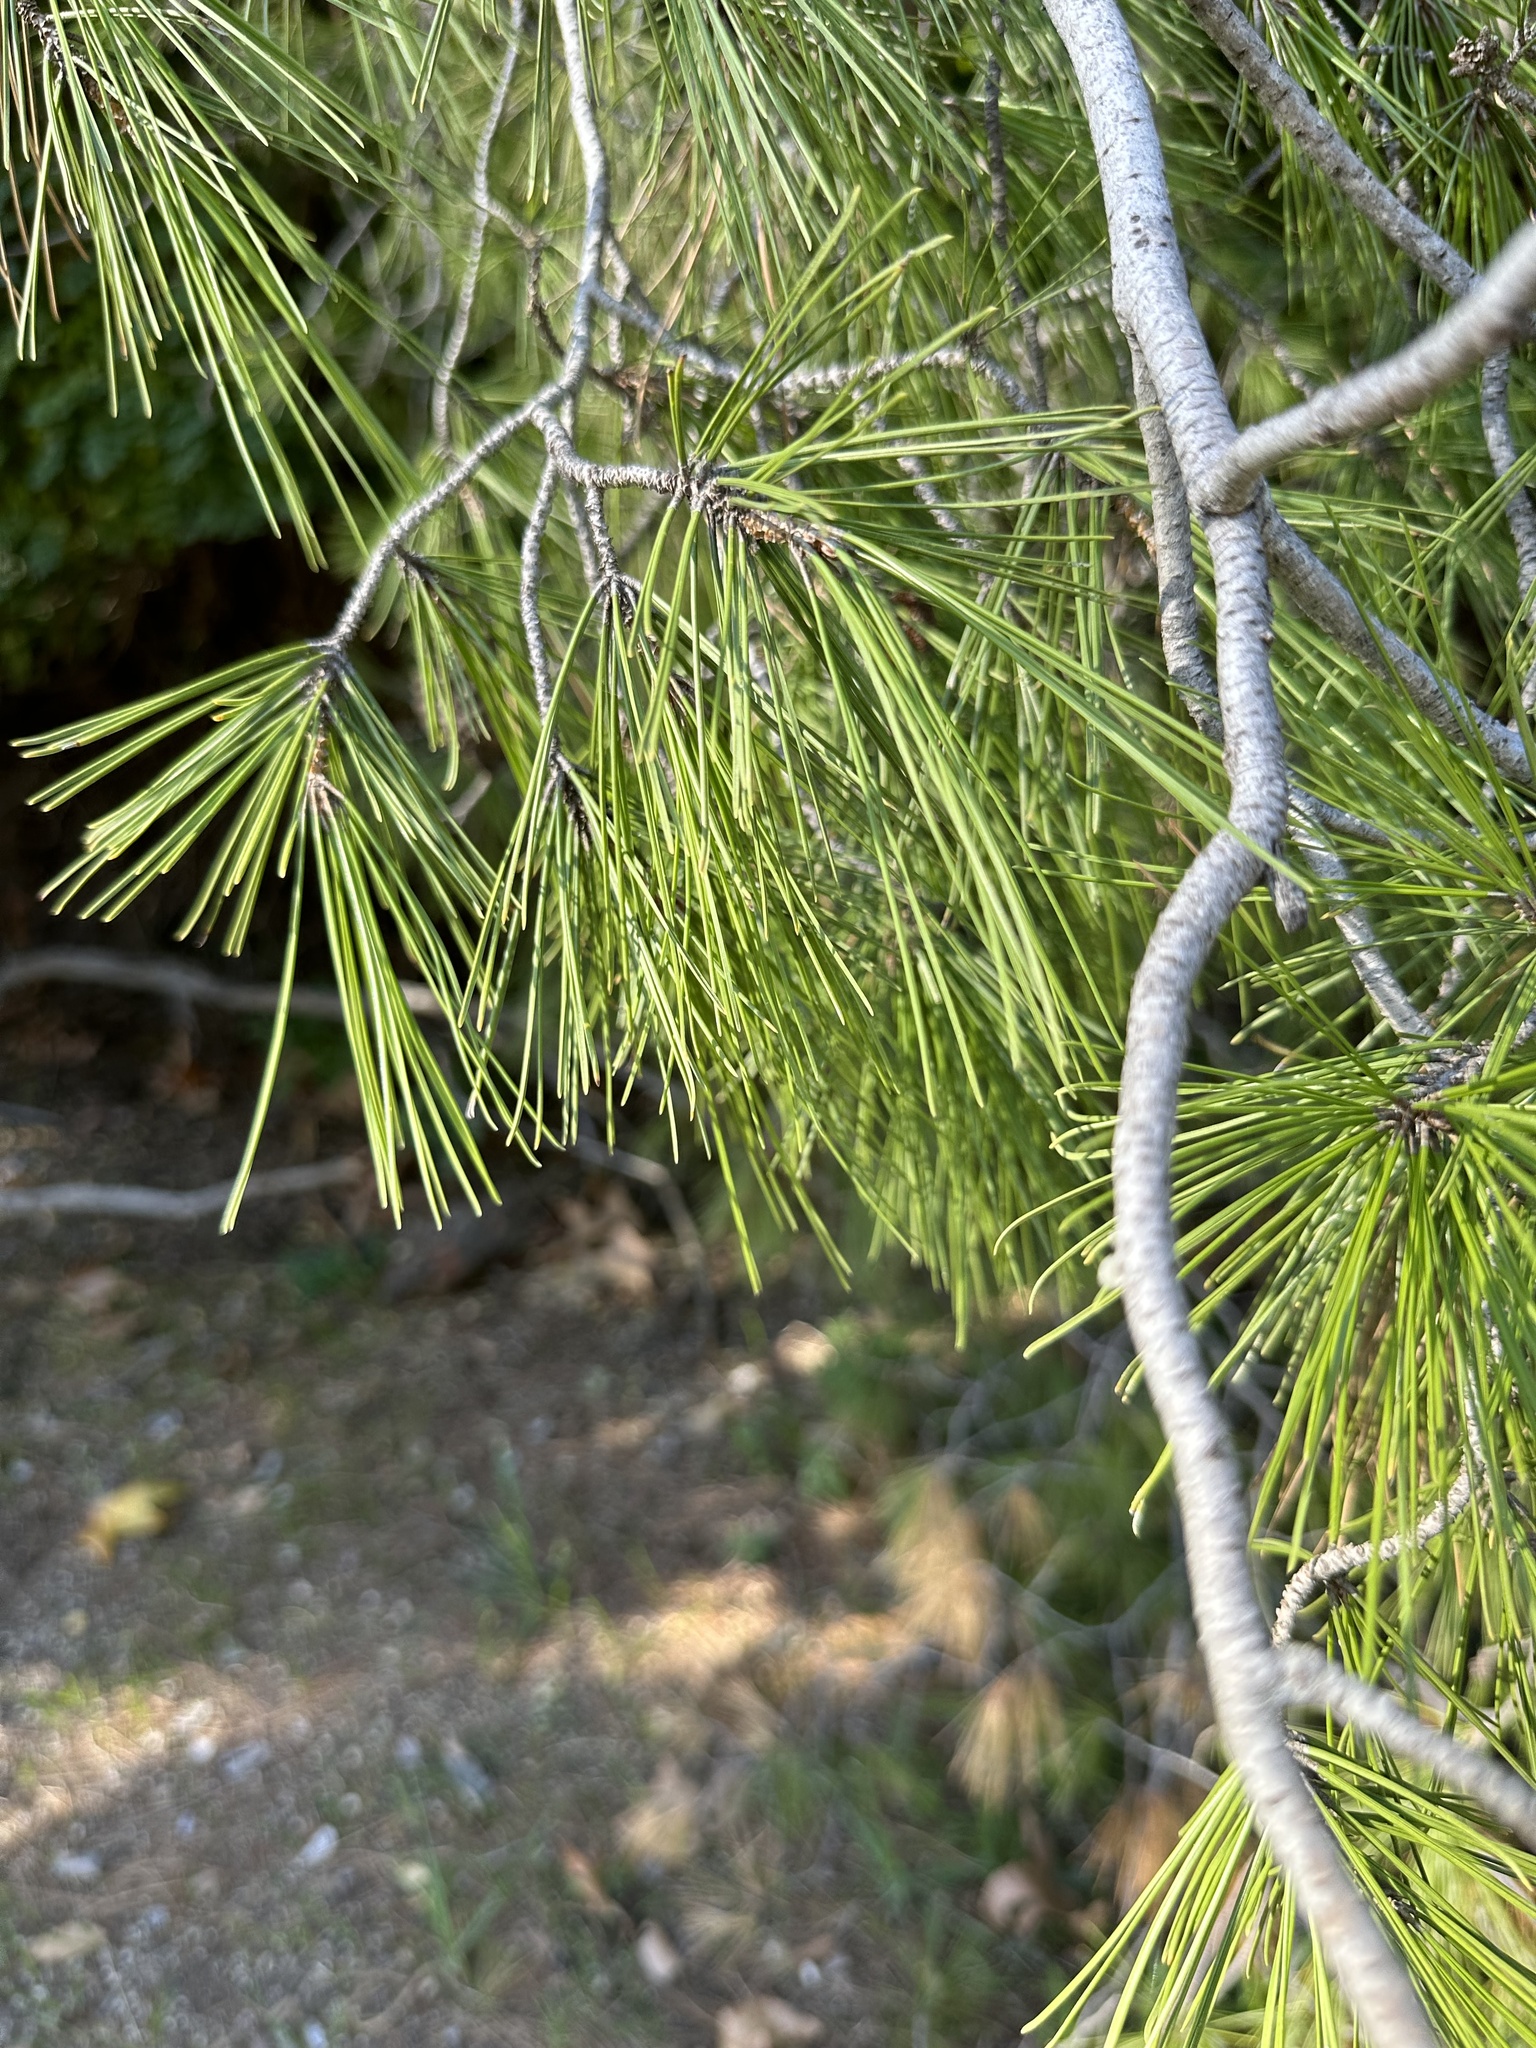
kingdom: Plantae
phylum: Tracheophyta
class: Pinopsida
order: Pinales
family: Pinaceae
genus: Pinus
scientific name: Pinus halepensis
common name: Aleppo pine
